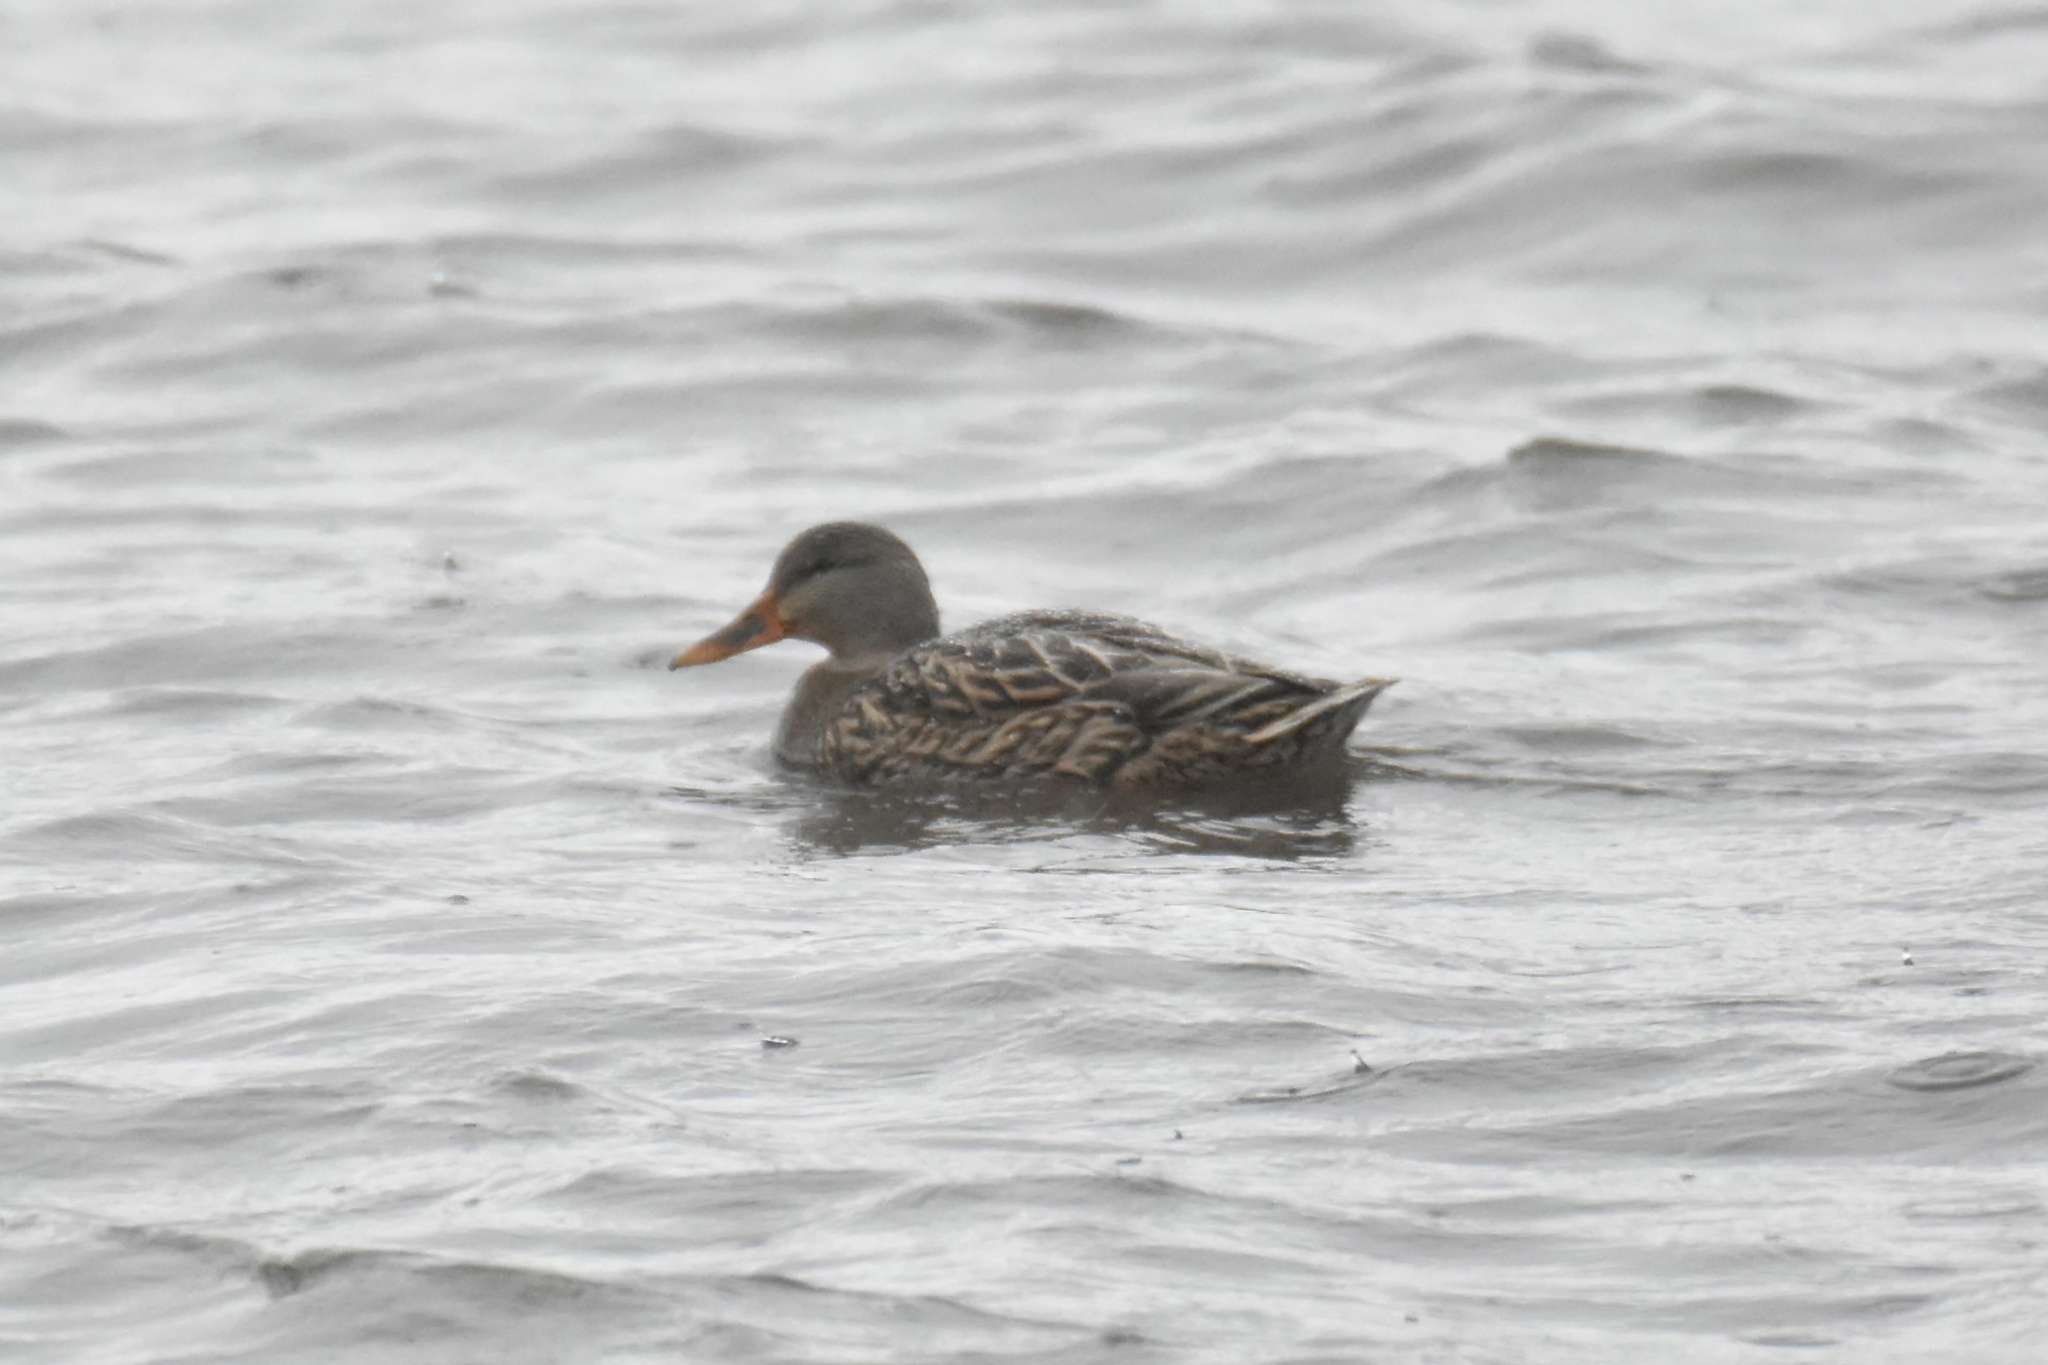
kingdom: Animalia
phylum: Chordata
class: Aves
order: Anseriformes
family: Anatidae
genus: Anas
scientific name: Anas platyrhynchos
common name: Mallard
